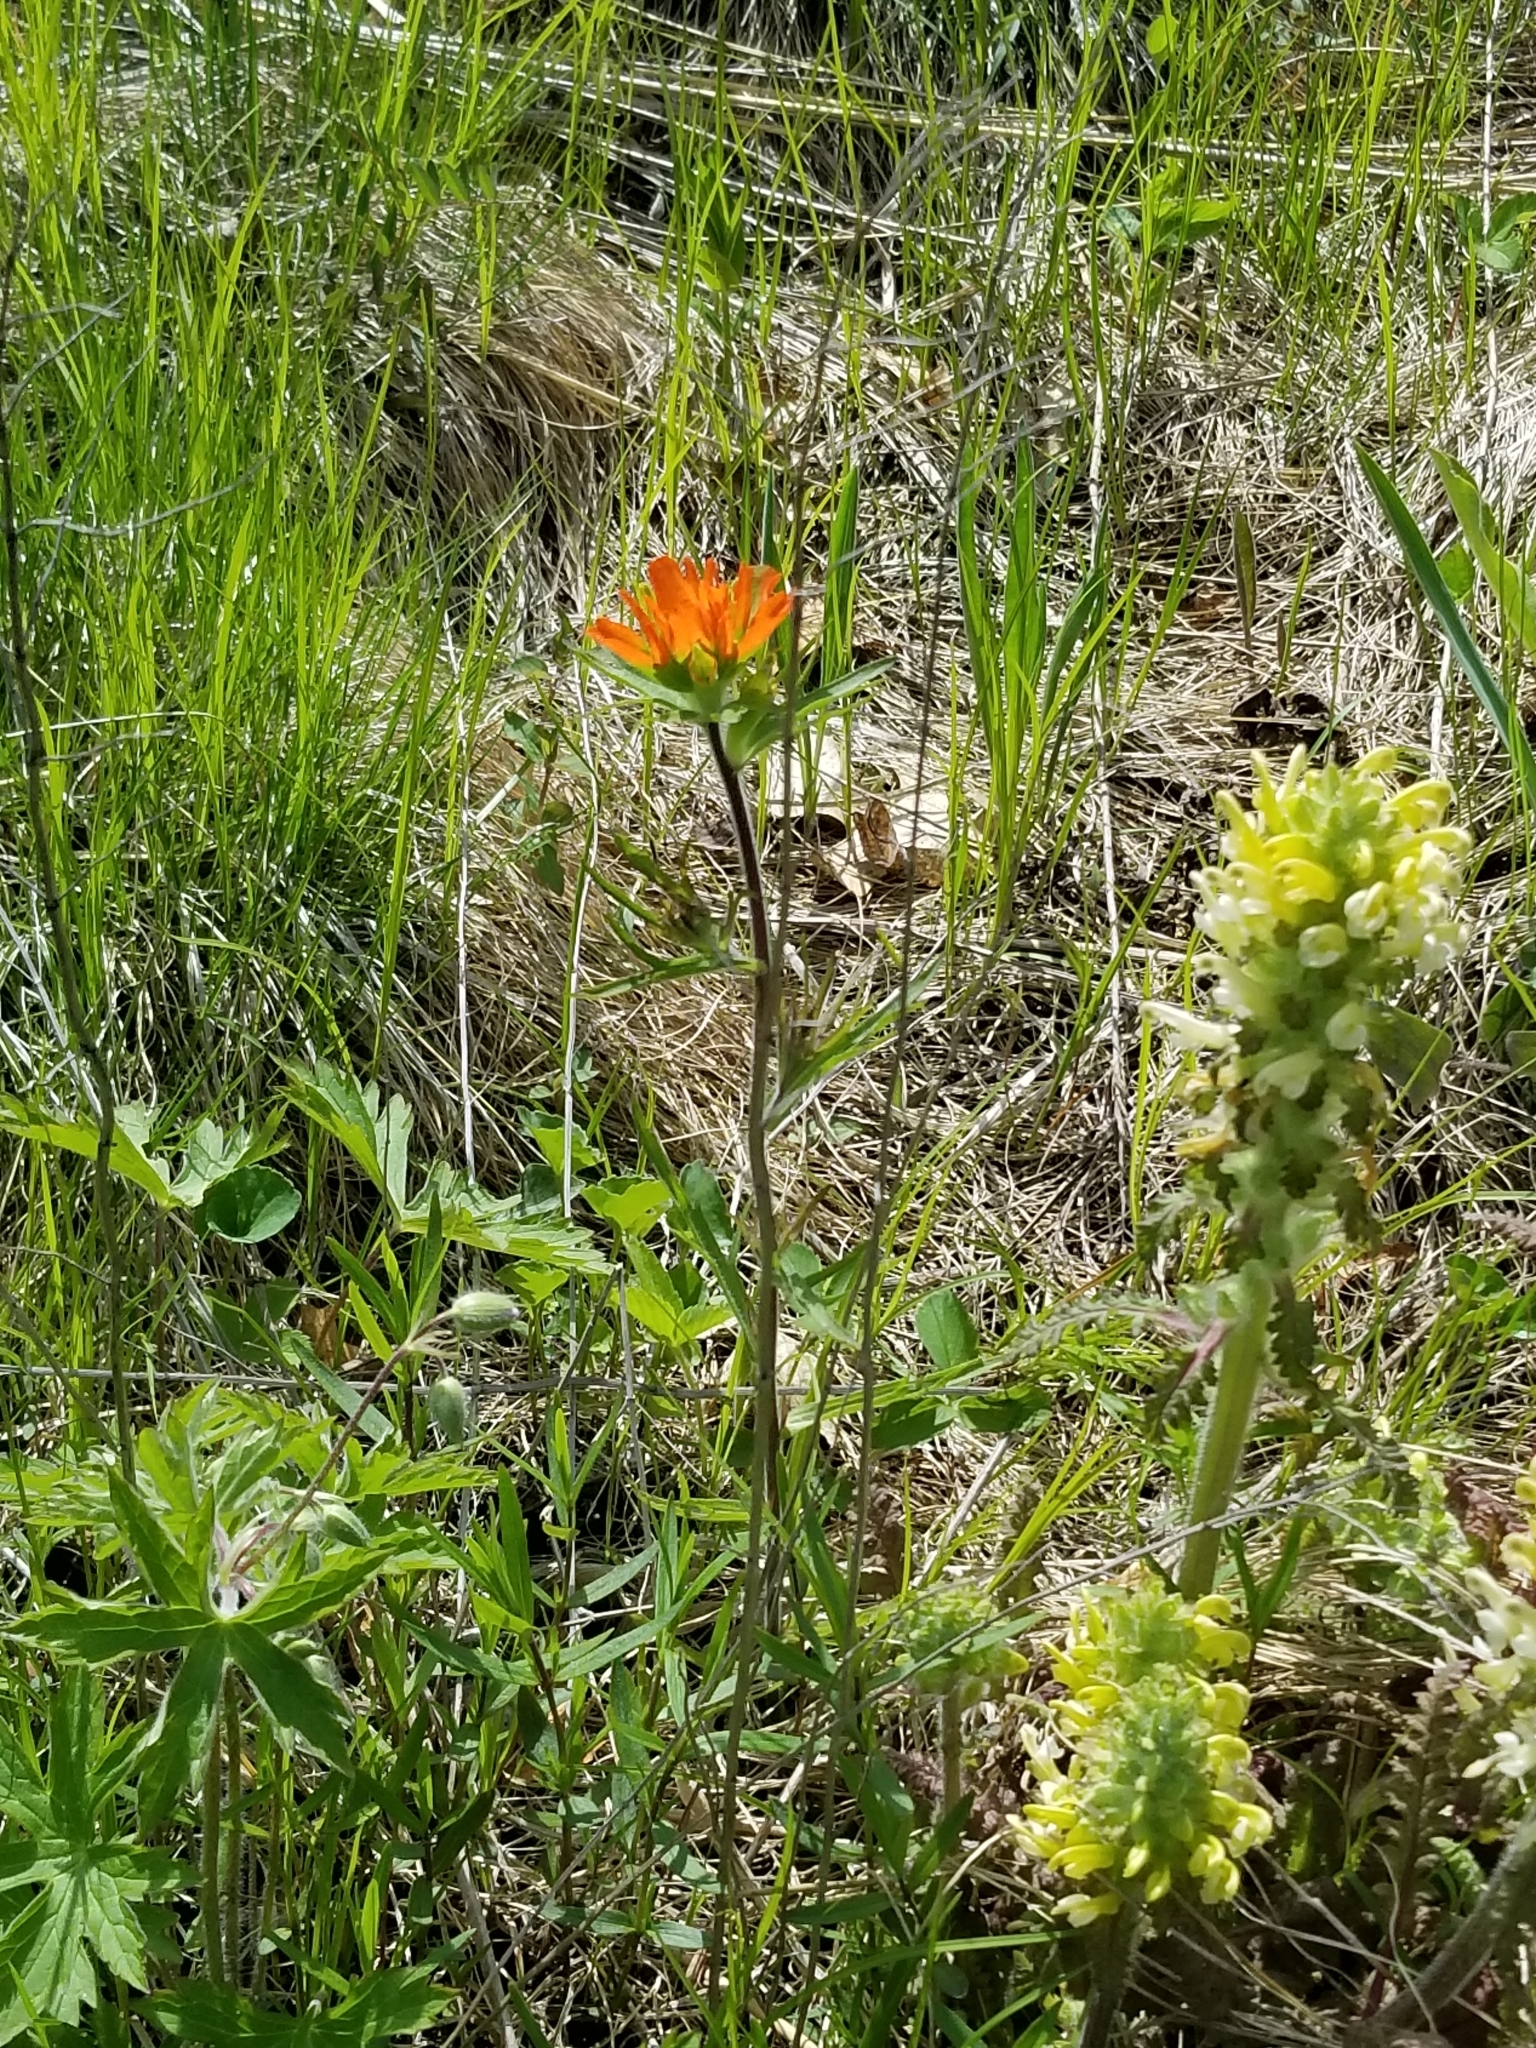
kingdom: Plantae
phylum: Tracheophyta
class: Magnoliopsida
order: Lamiales
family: Orobanchaceae
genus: Castilleja
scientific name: Castilleja coccinea
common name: Scarlet paintbrush
